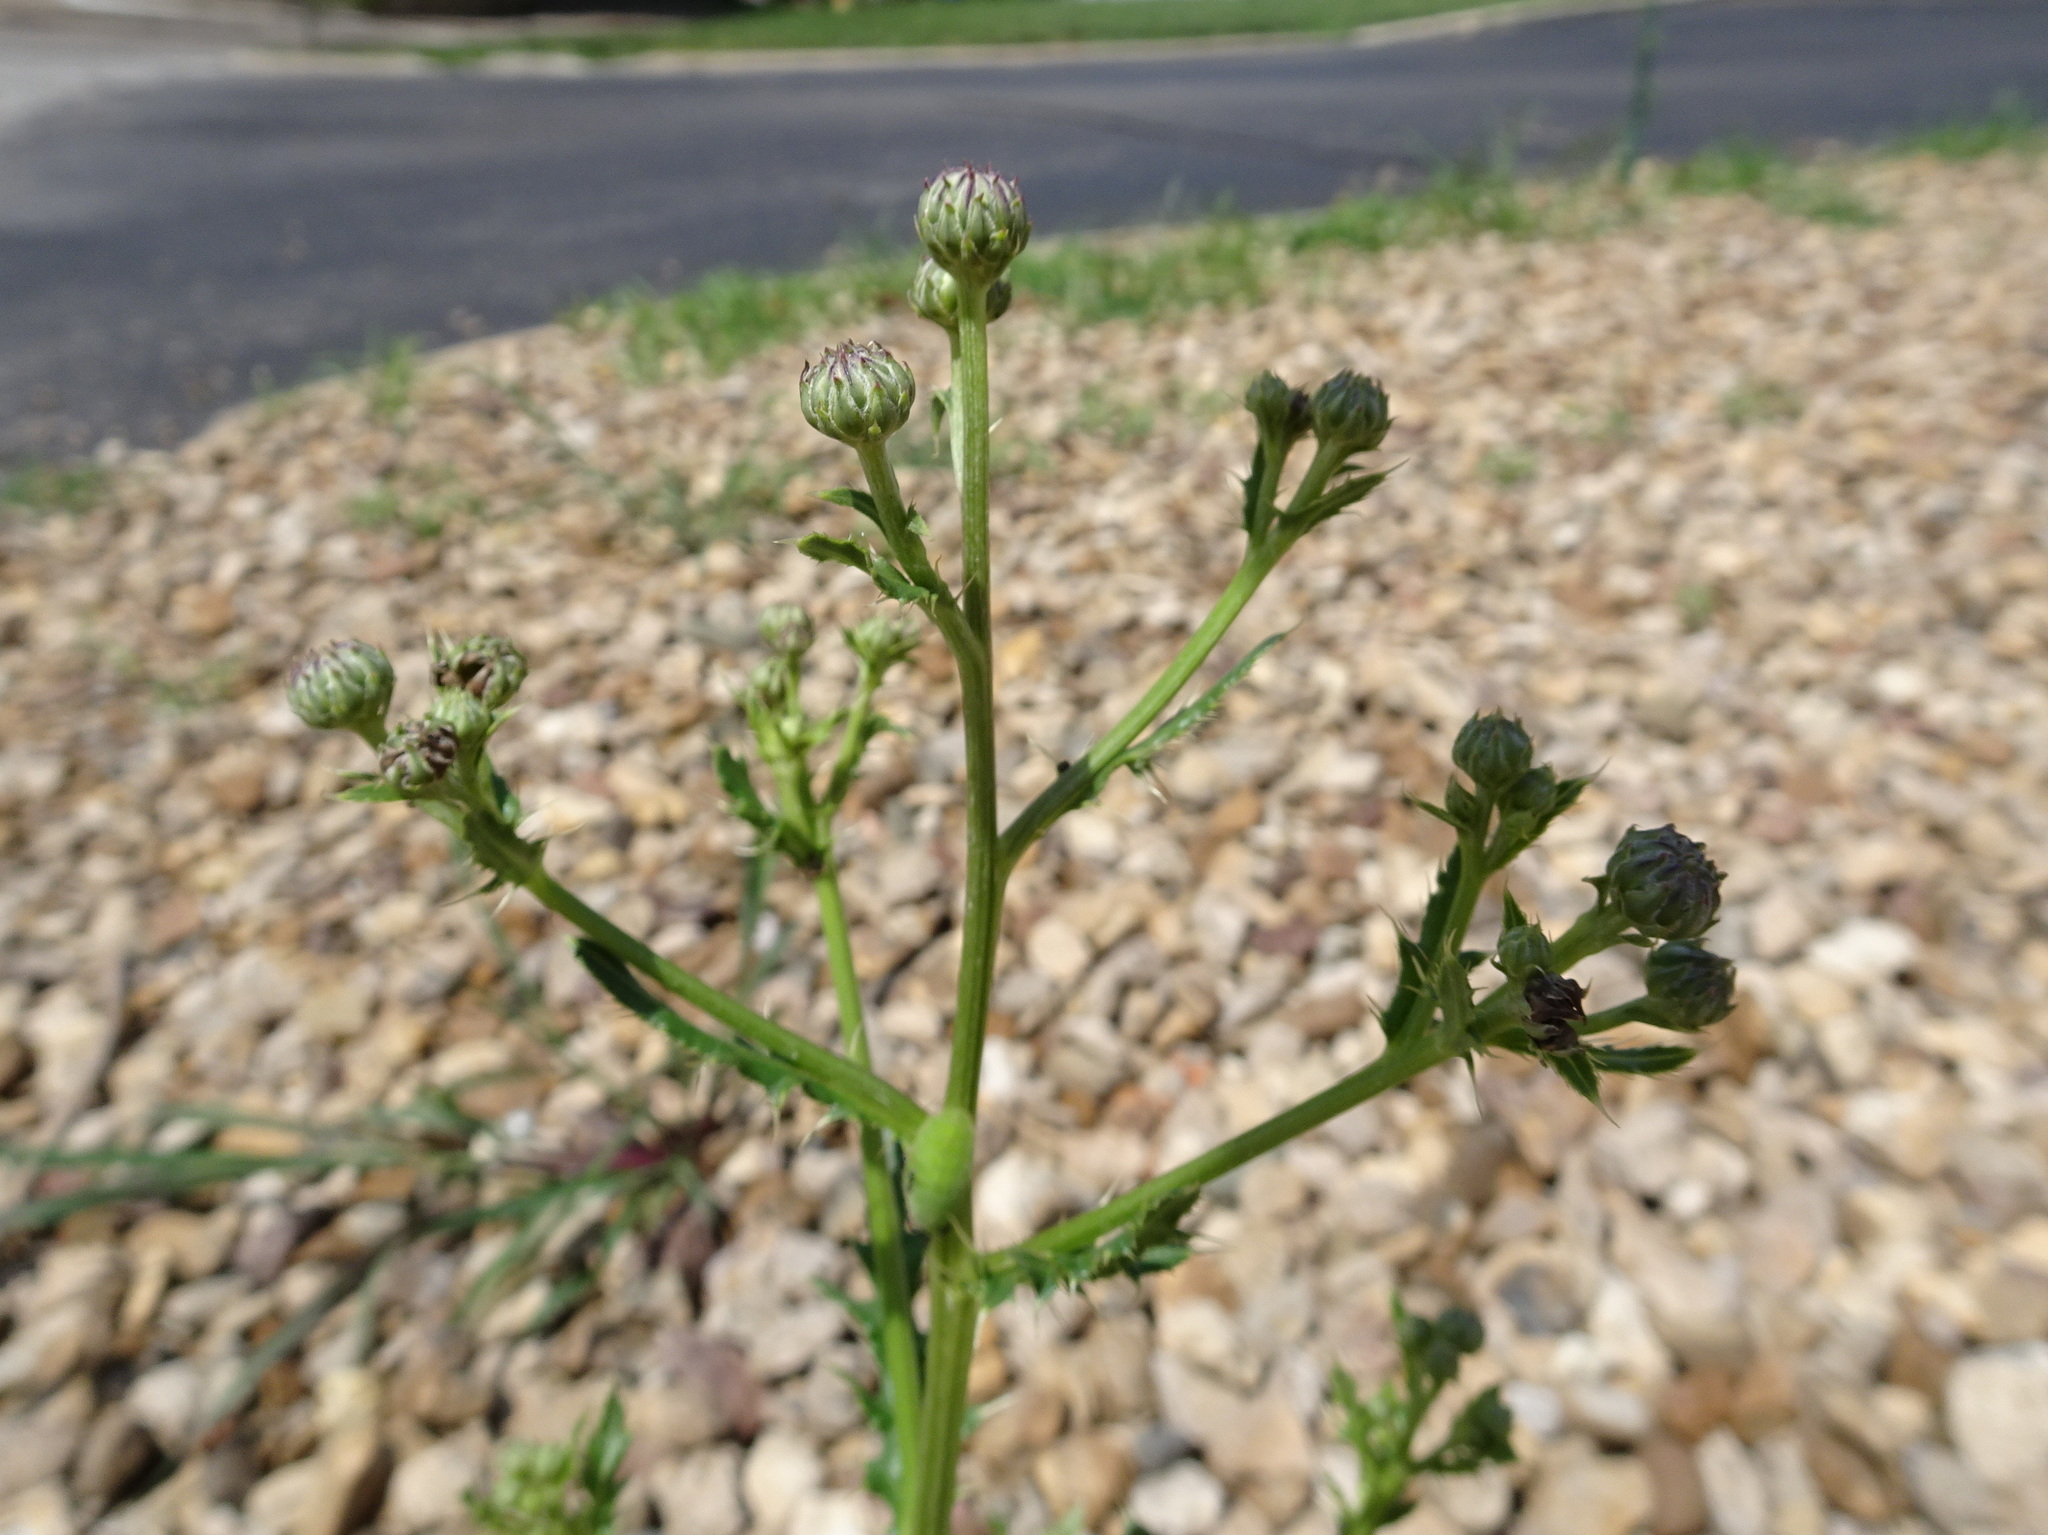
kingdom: Plantae
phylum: Tracheophyta
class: Magnoliopsida
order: Asterales
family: Asteraceae
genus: Cirsium
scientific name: Cirsium arvense
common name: Creeping thistle
